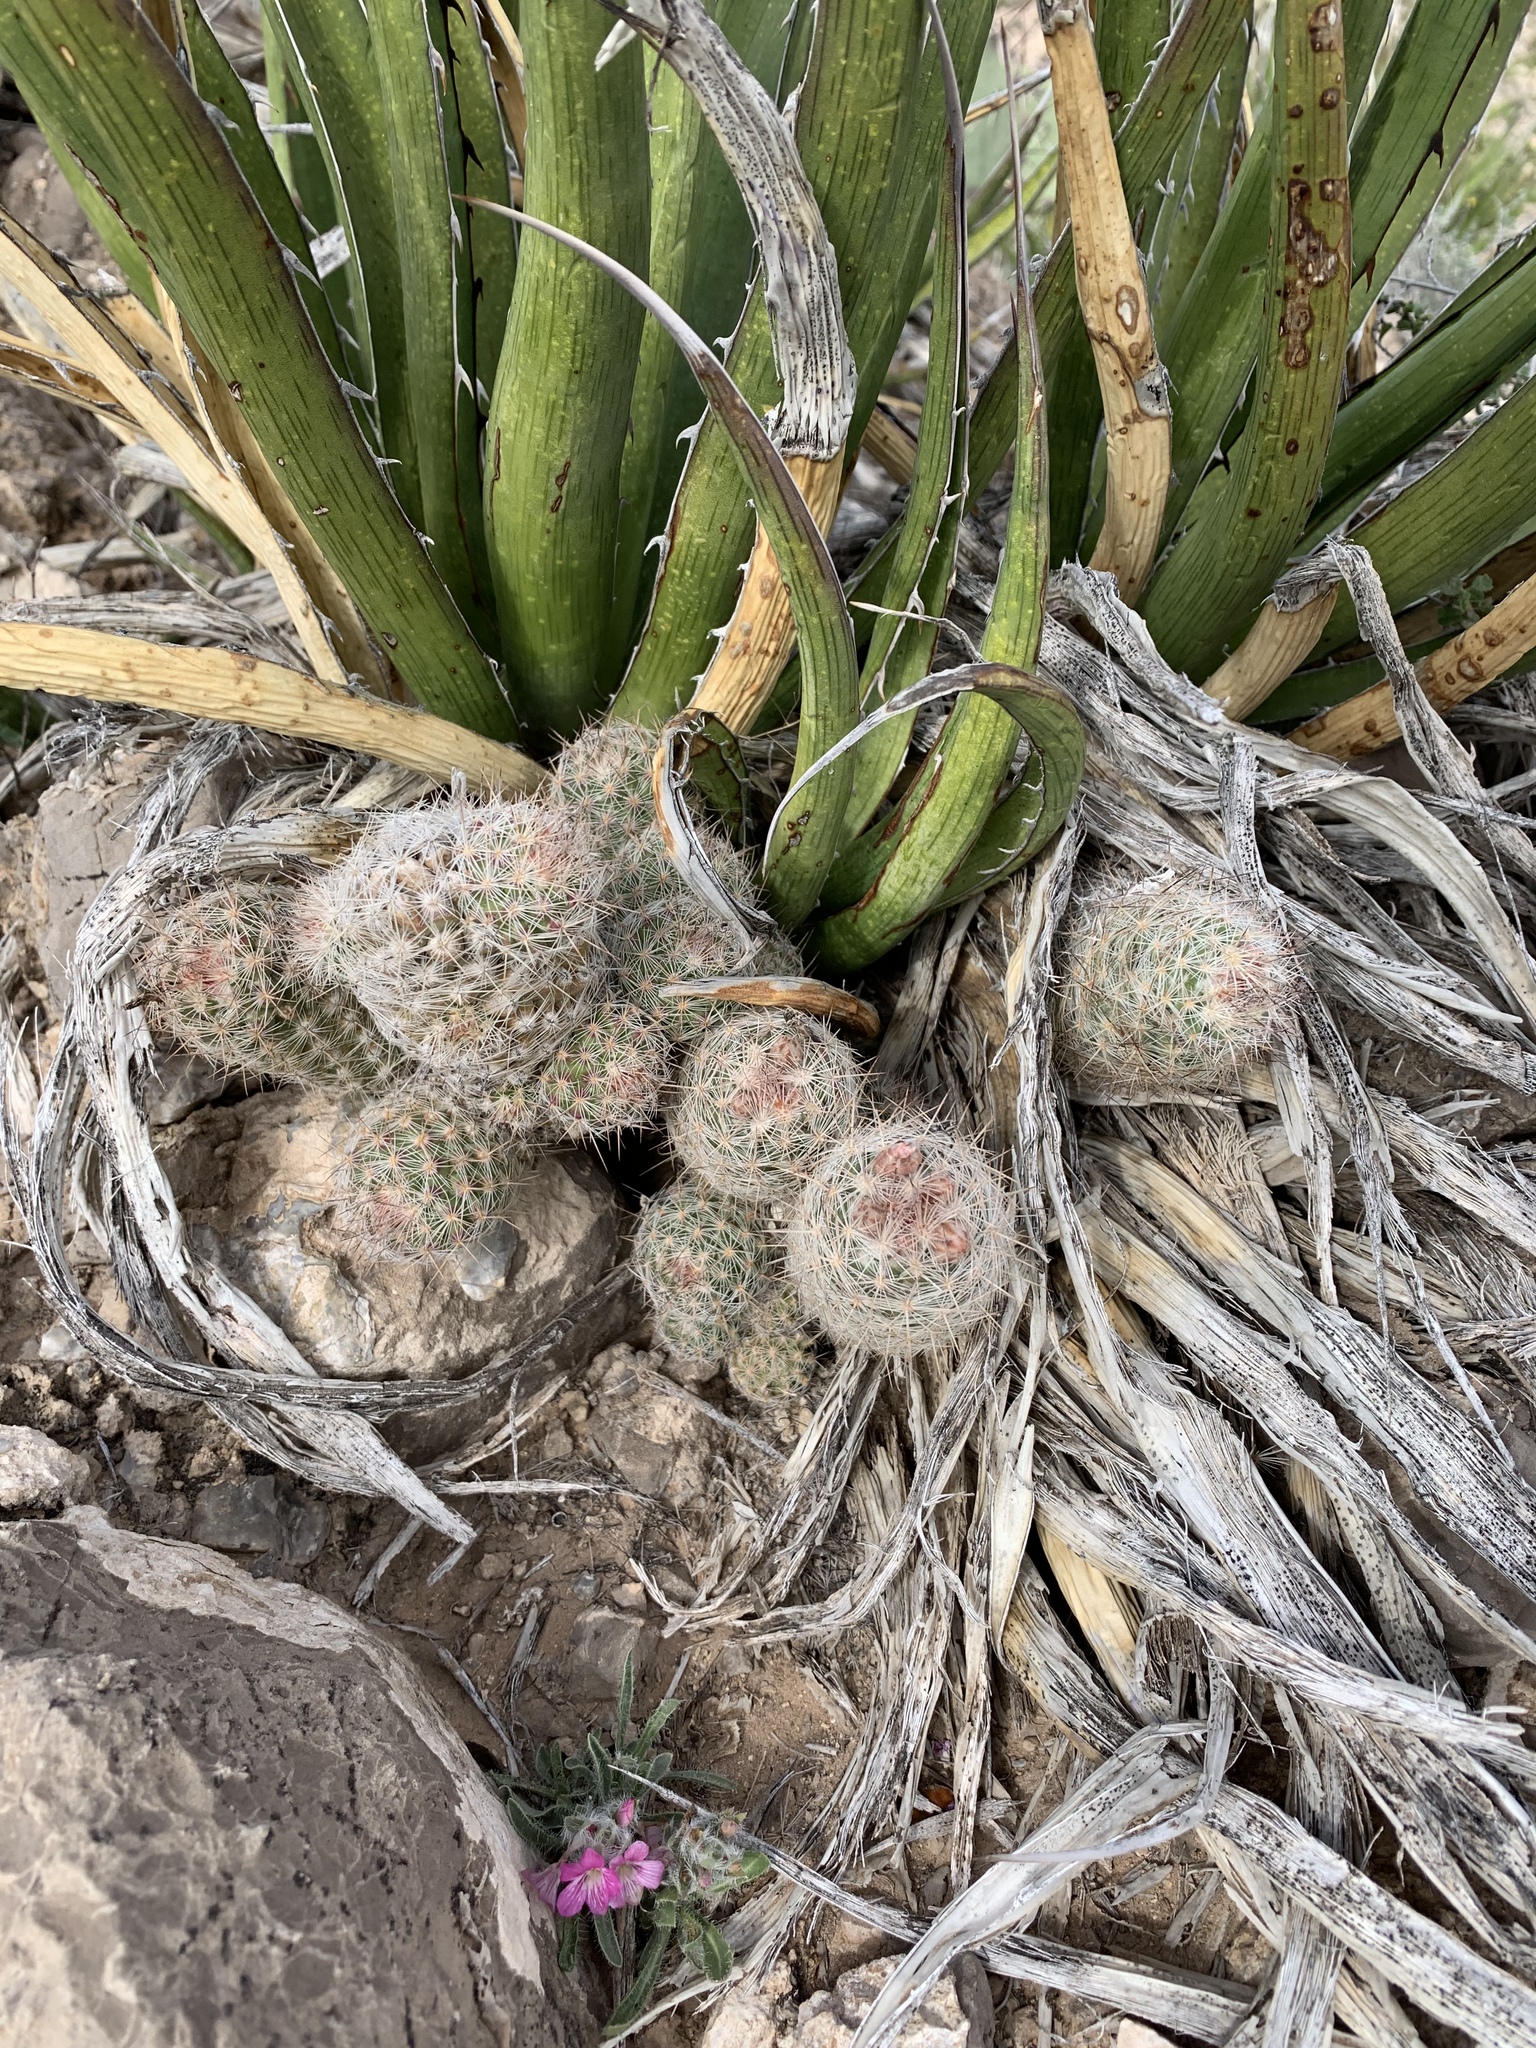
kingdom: Plantae
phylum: Tracheophyta
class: Magnoliopsida
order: Caryophyllales
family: Cactaceae
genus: Pelecyphora
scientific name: Pelecyphora tuberculosa
